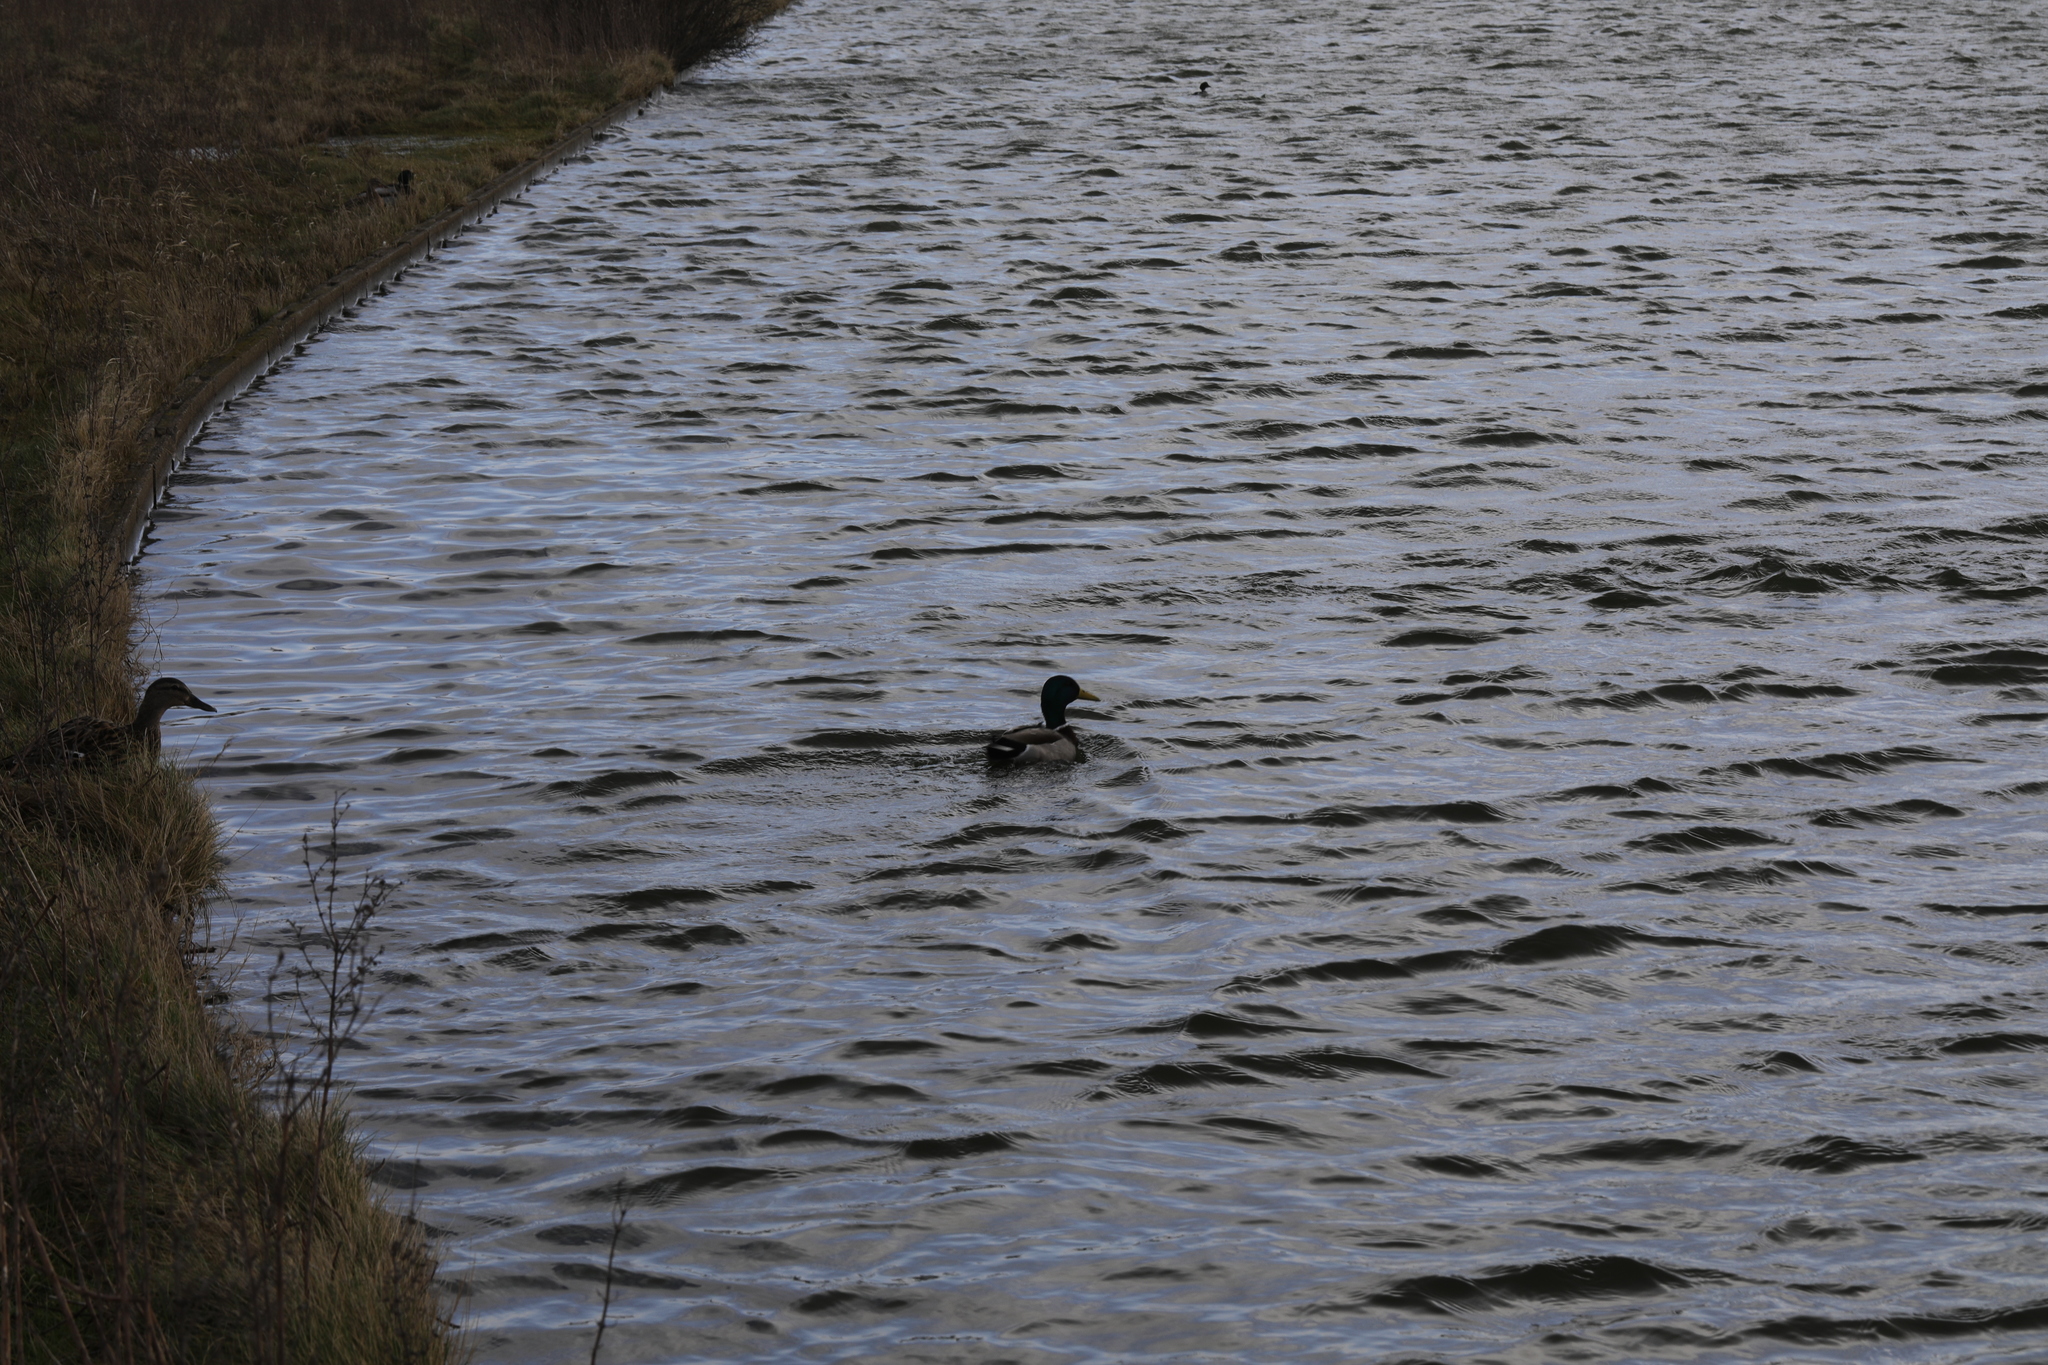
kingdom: Animalia
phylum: Chordata
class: Aves
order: Anseriformes
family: Anatidae
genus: Anas
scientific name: Anas platyrhynchos
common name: Mallard
